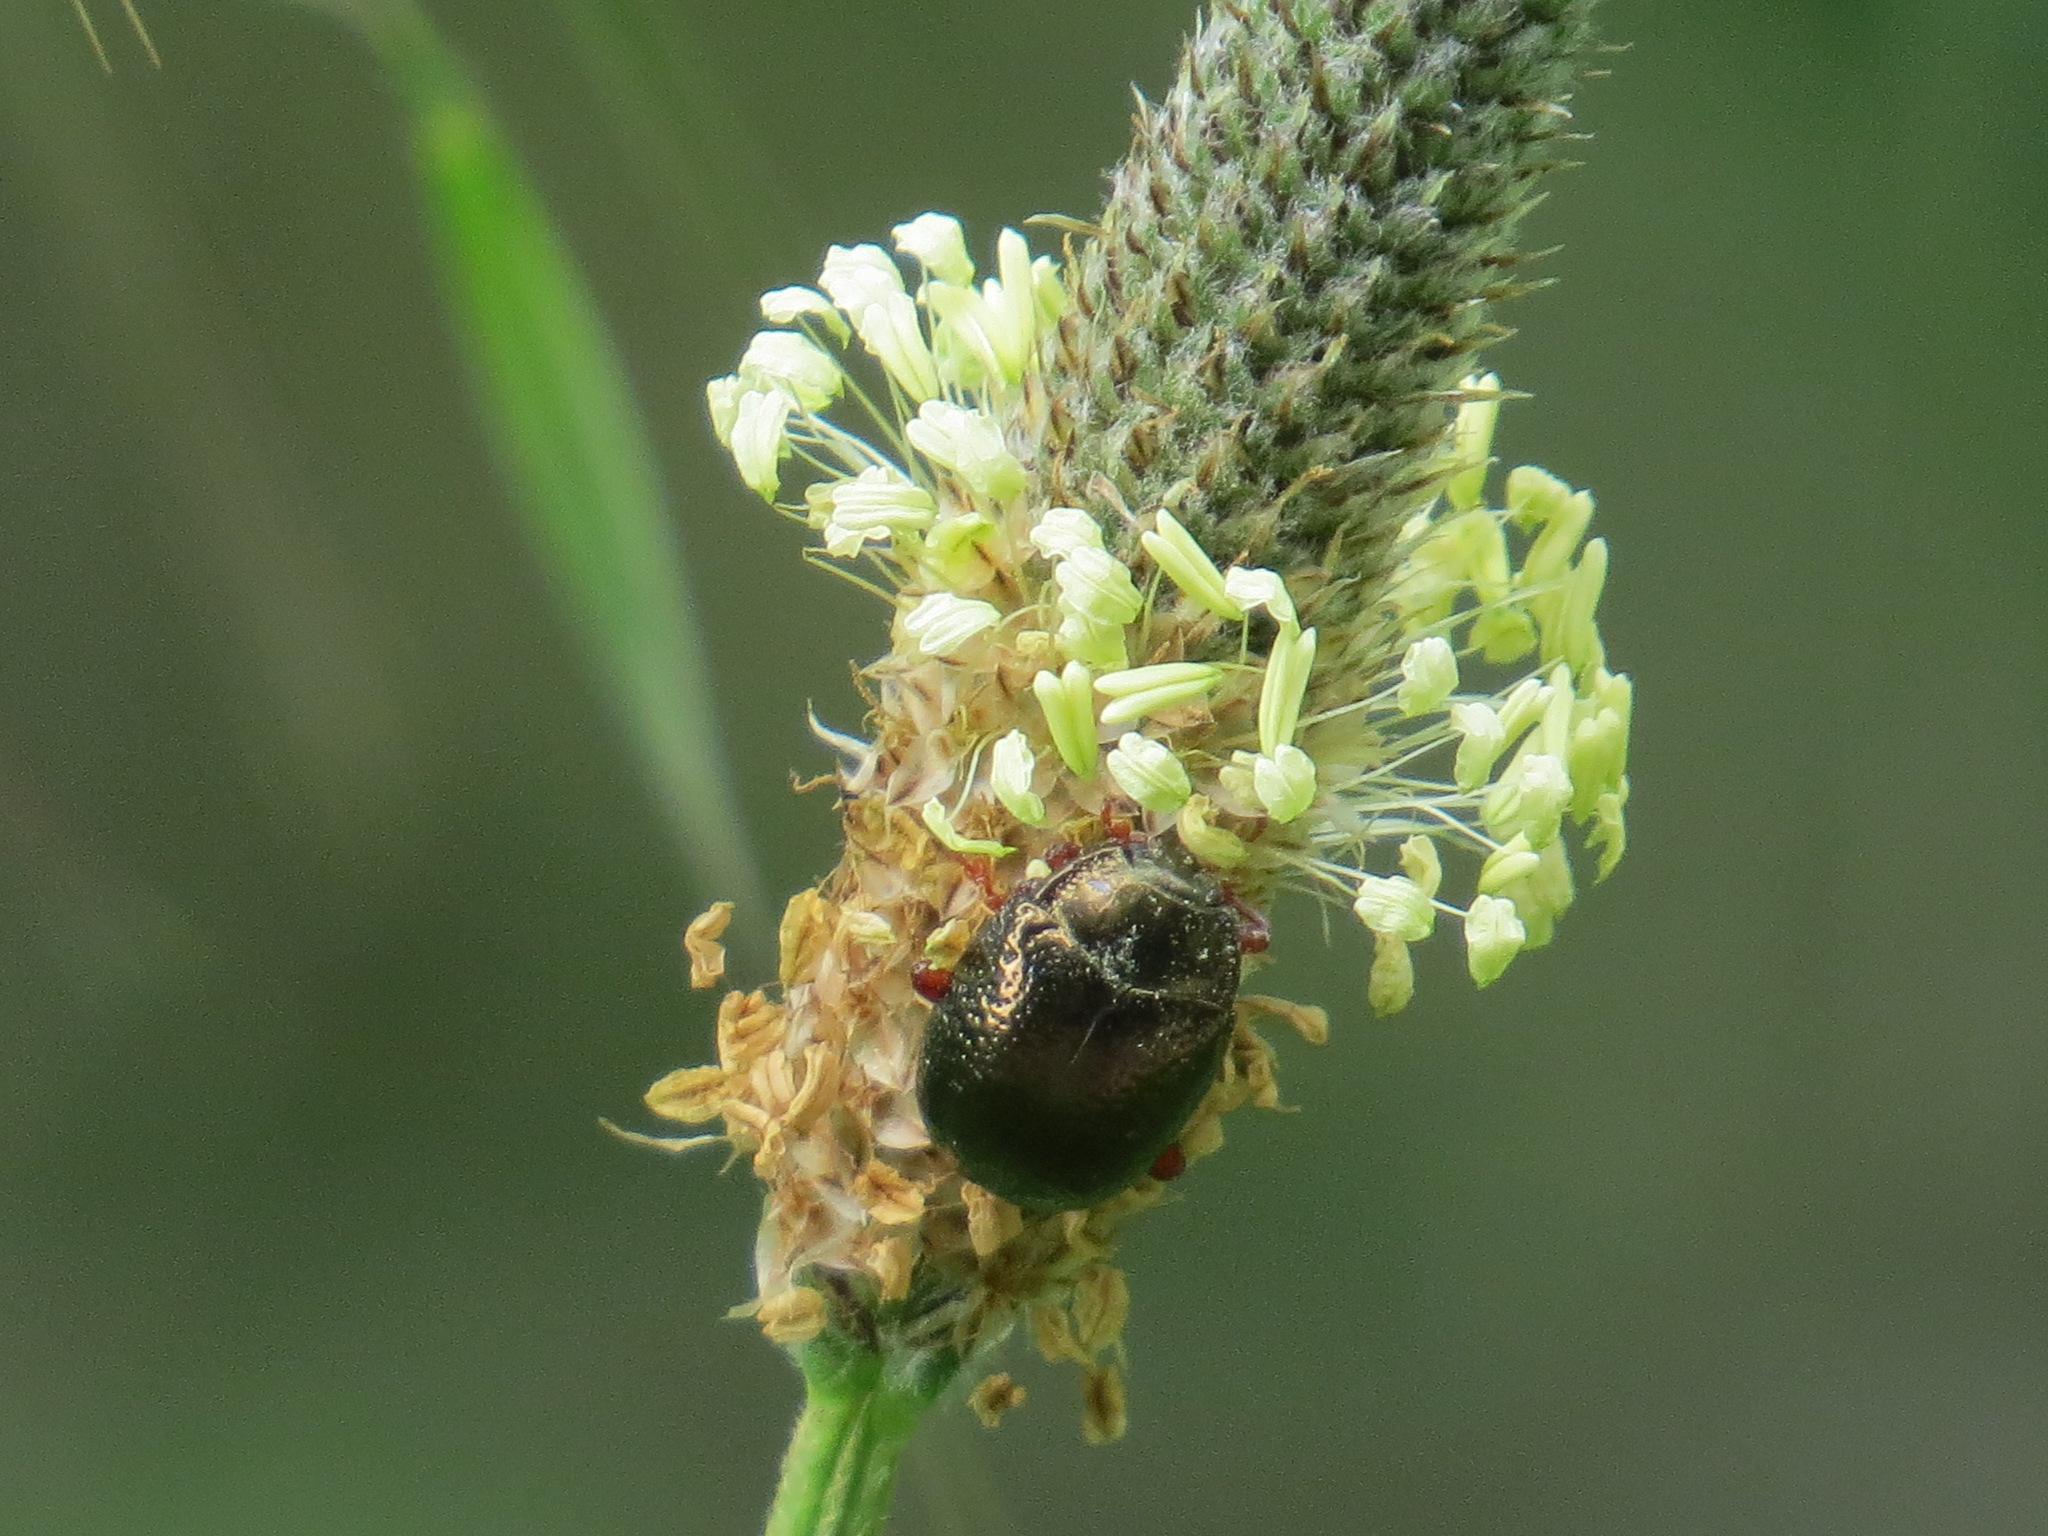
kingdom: Animalia
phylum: Arthropoda
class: Insecta
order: Coleoptera
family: Chrysomelidae
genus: Chrysolina
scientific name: Chrysolina bankii
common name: Leaf beetle
